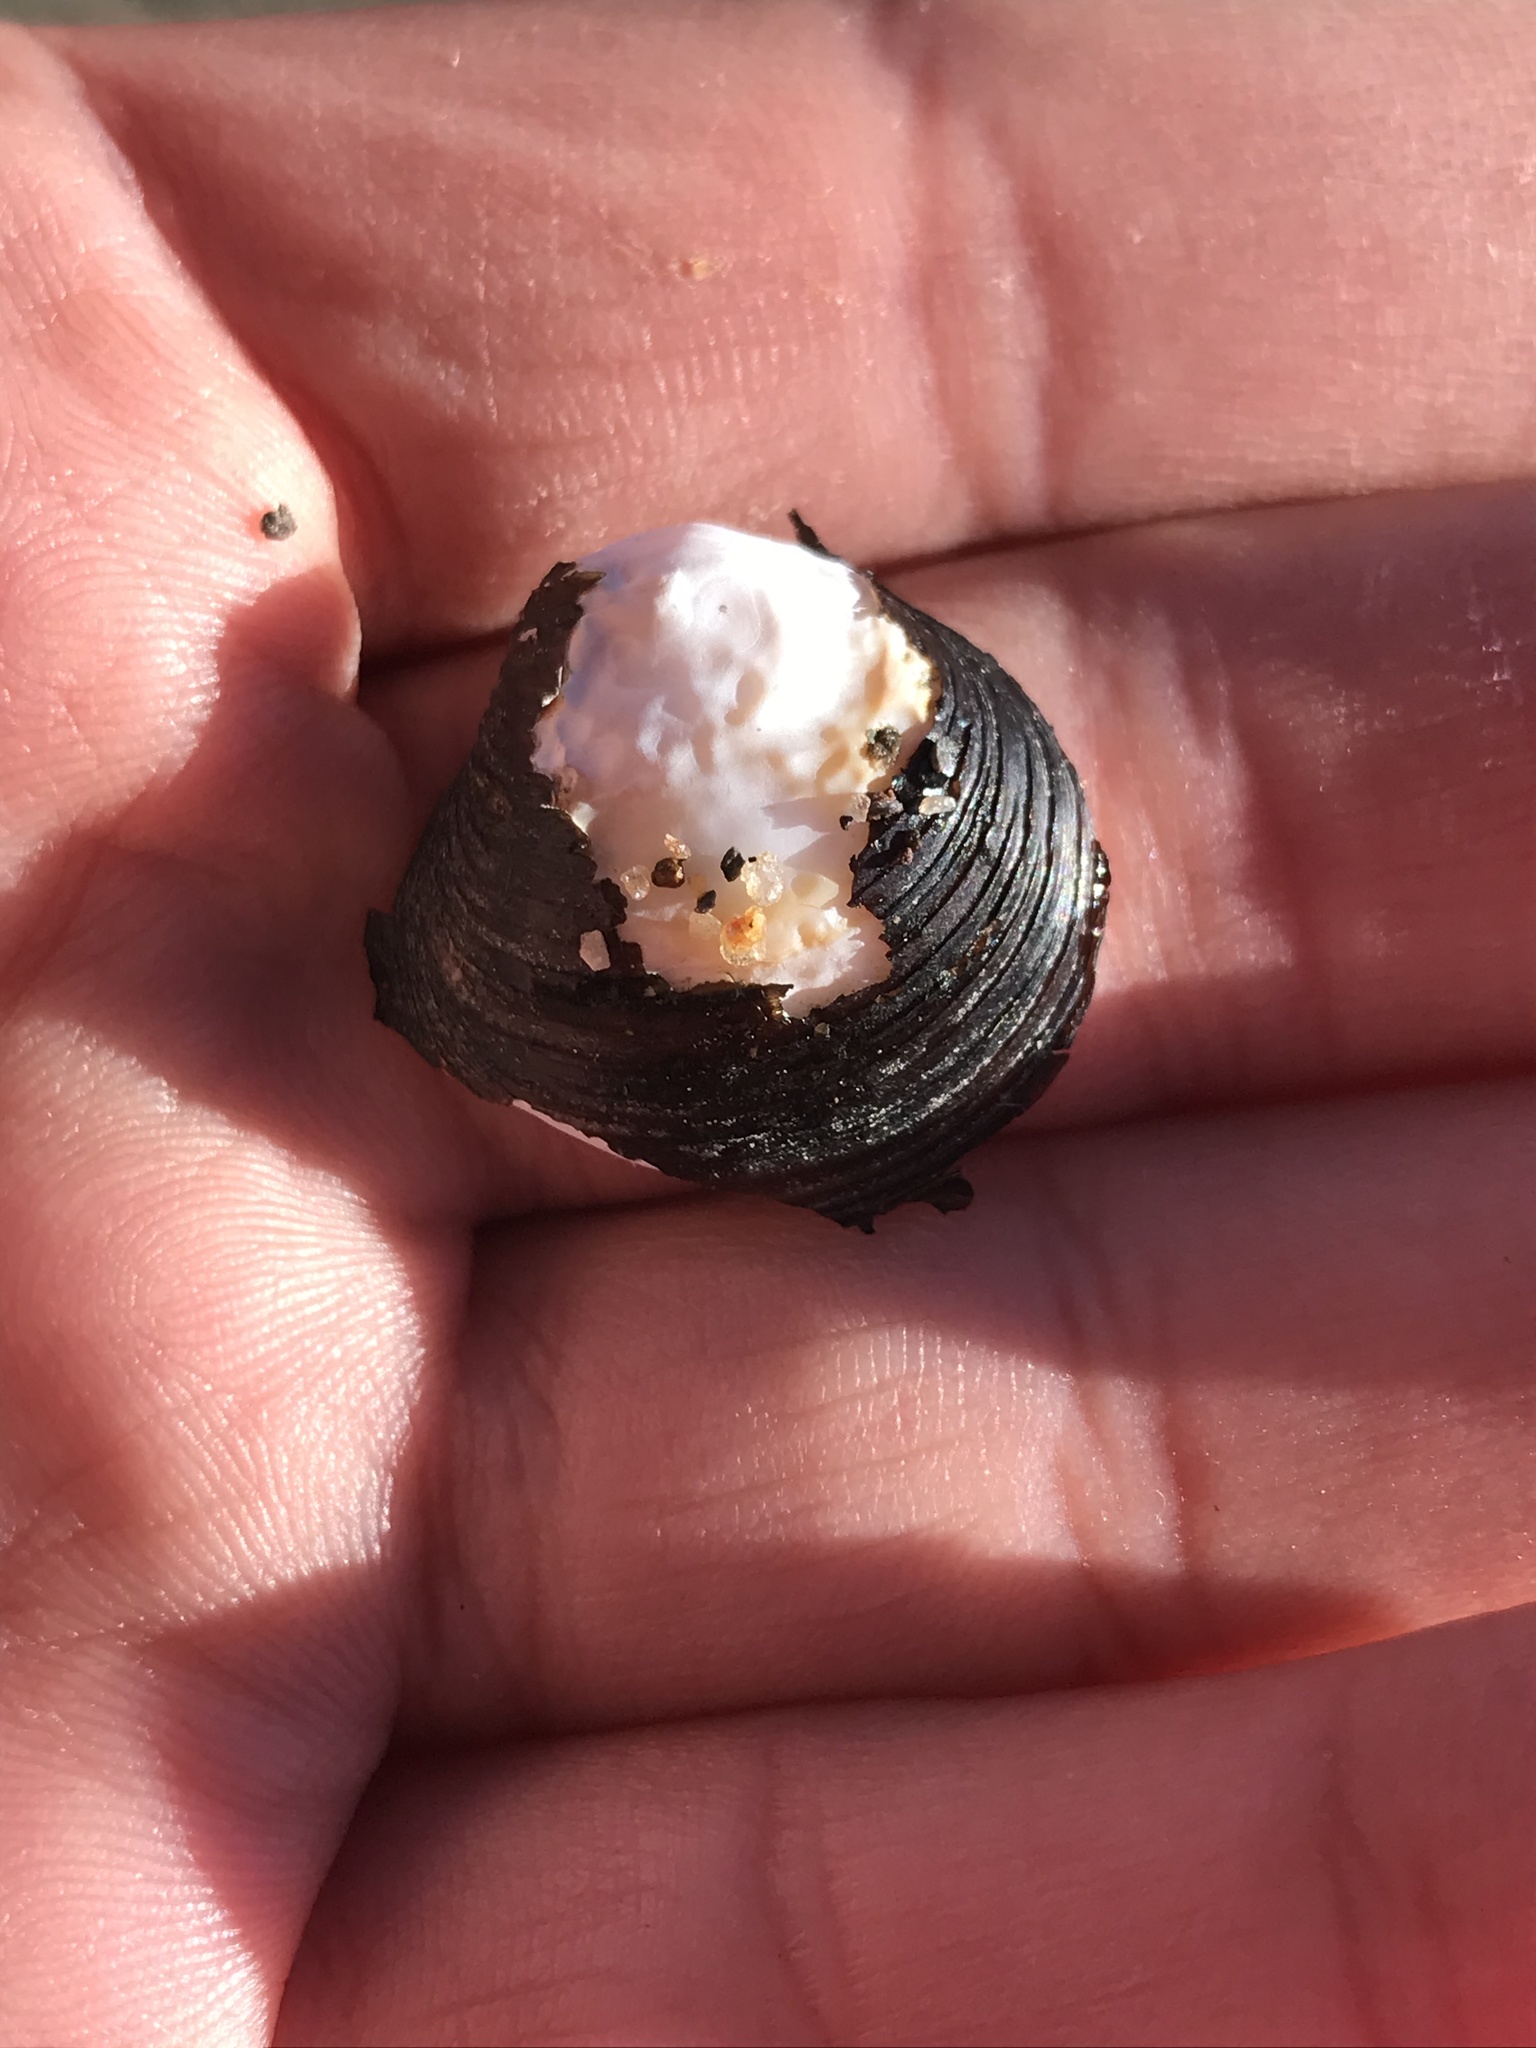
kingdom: Animalia
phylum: Mollusca
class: Bivalvia
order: Venerida
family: Cyrenidae
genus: Corbicula
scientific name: Corbicula fluminea
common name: Asian clam
